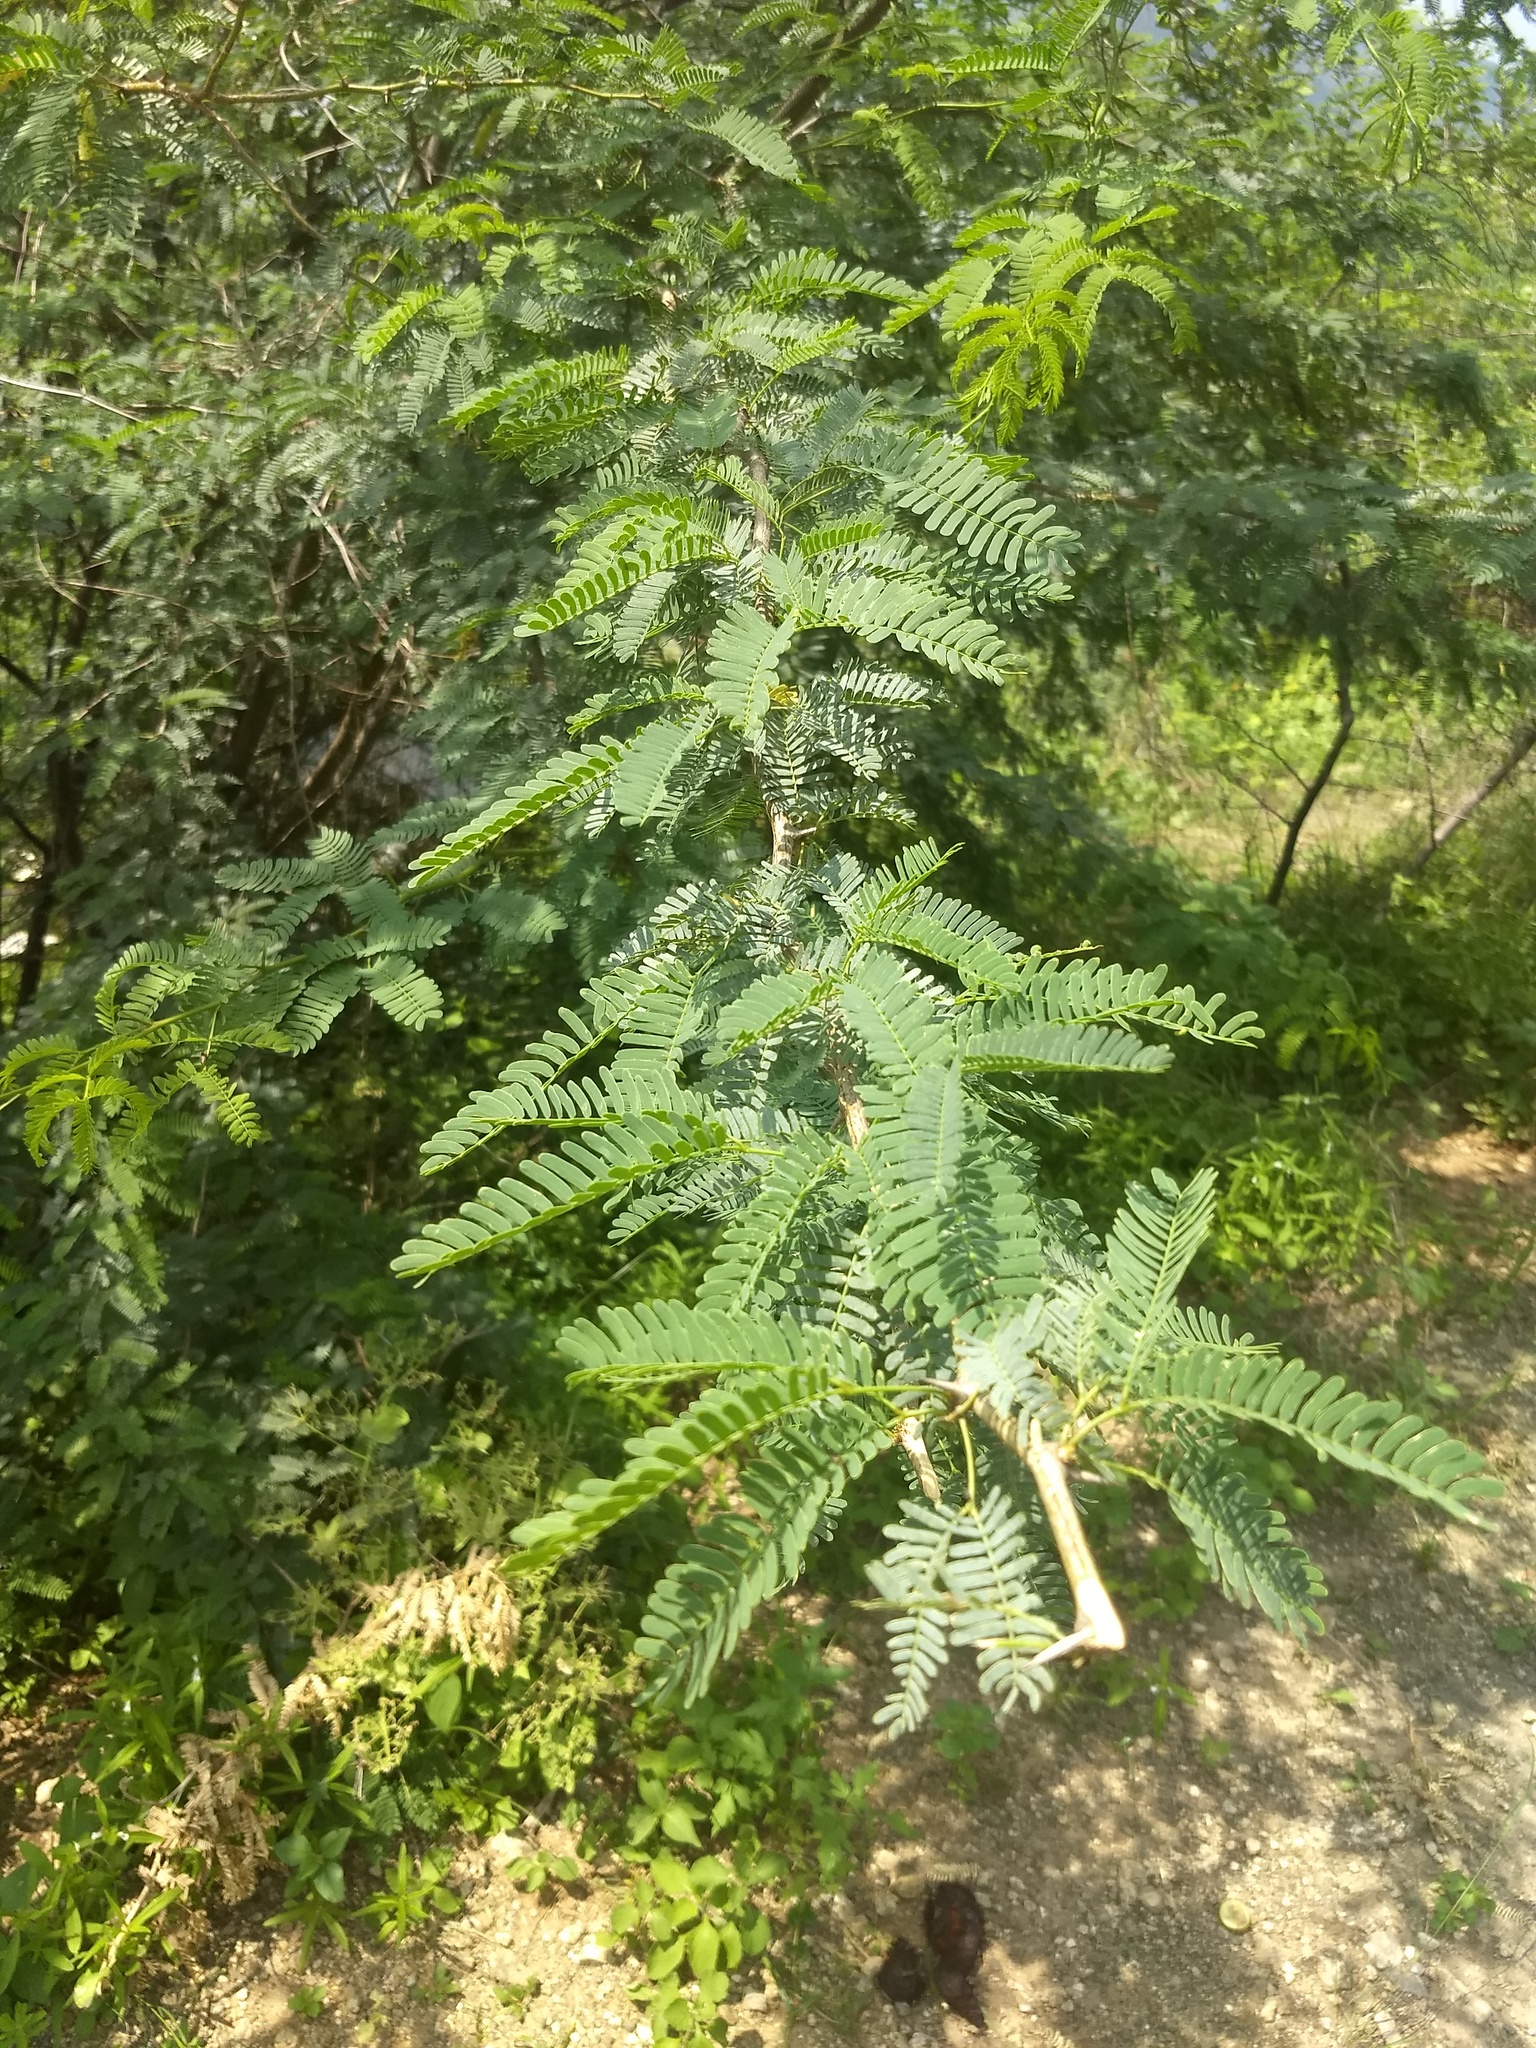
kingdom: Plantae
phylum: Tracheophyta
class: Magnoliopsida
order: Fabales
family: Fabaceae
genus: Prosopis
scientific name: Prosopis juliflora
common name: Mesquite
